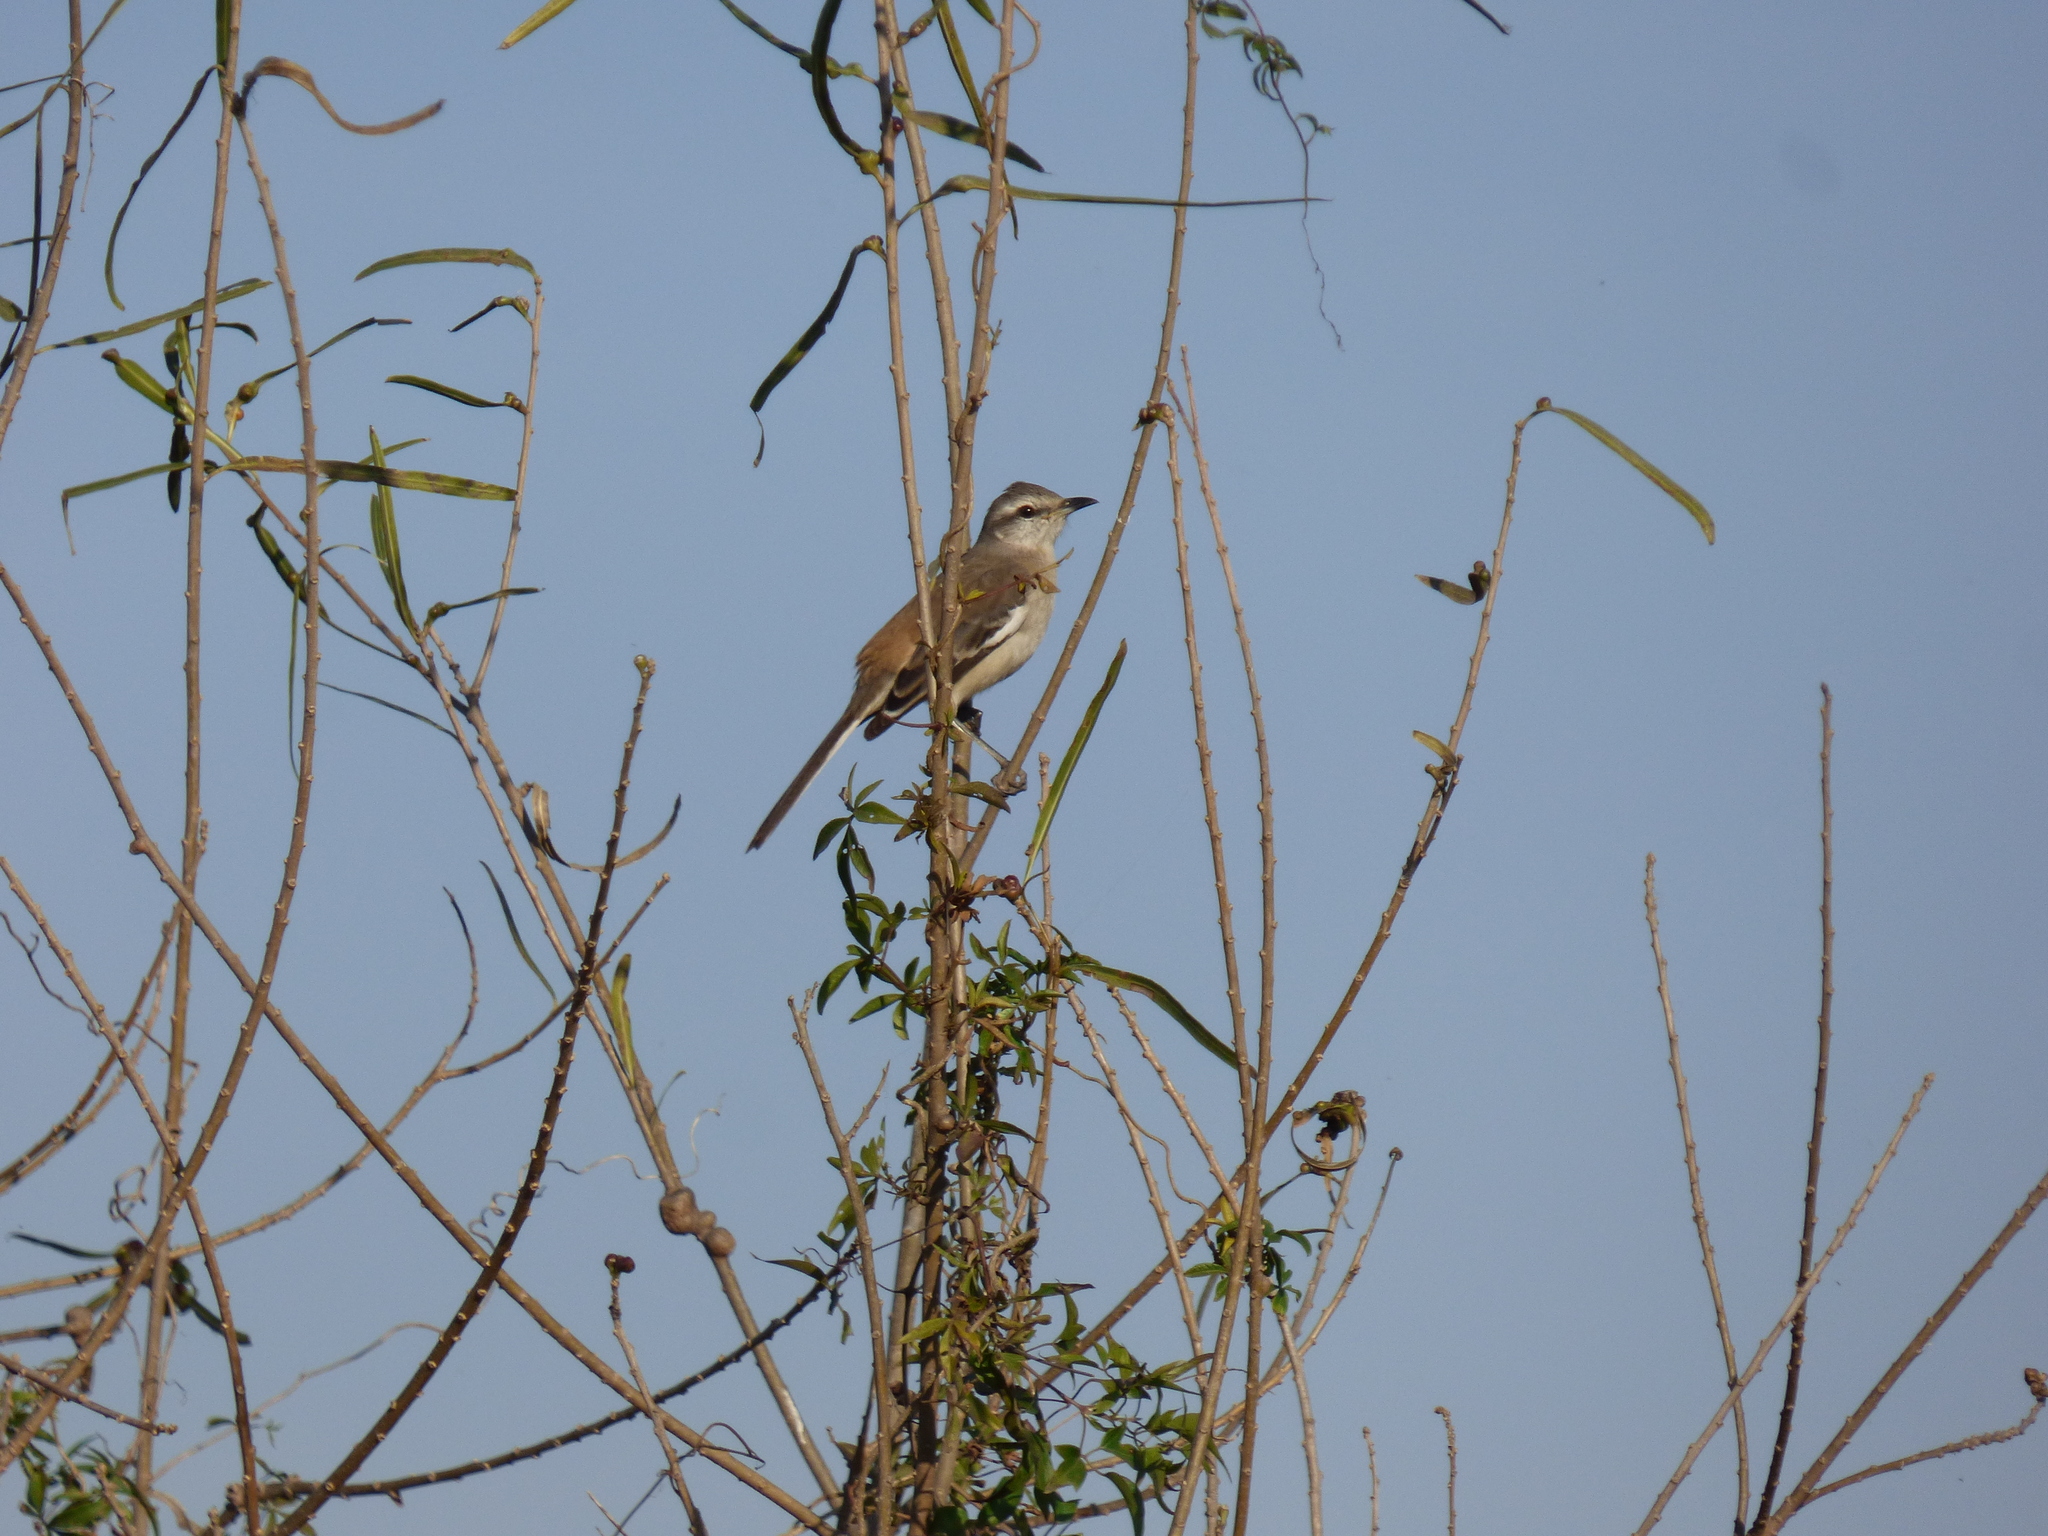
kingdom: Animalia
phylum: Chordata
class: Aves
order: Passeriformes
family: Mimidae
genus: Mimus
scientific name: Mimus triurus
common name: White-banded mockingbird
